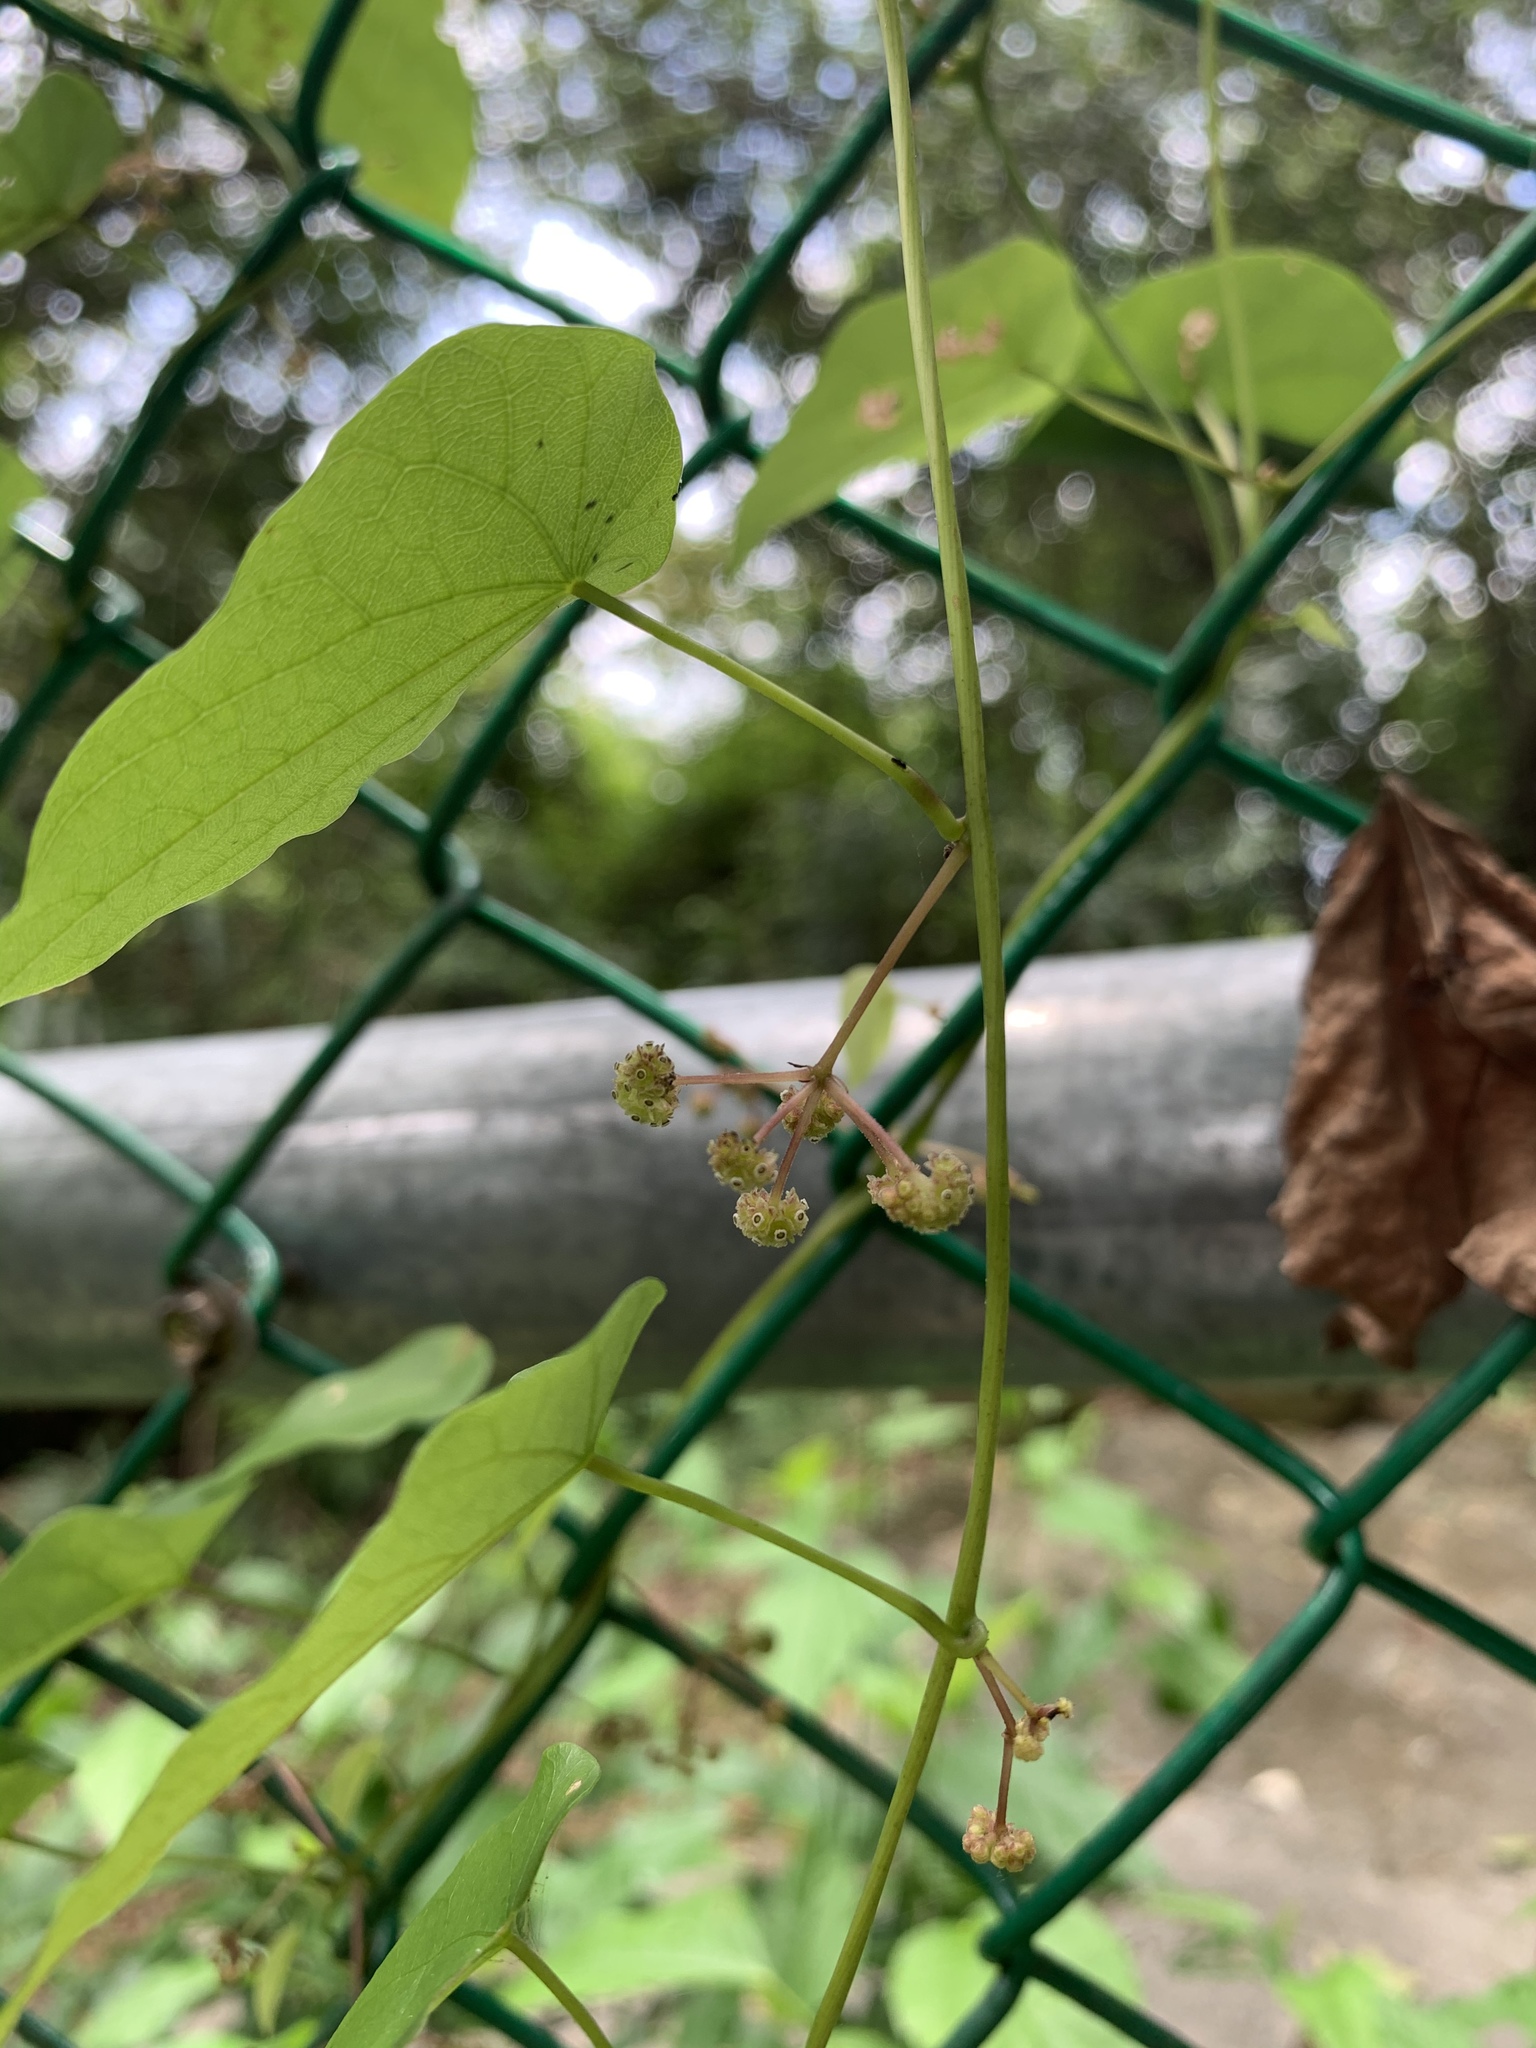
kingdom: Plantae
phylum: Tracheophyta
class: Magnoliopsida
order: Ranunculales
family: Menispermaceae
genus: Stephania
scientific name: Stephania japonica
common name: Snake vine
